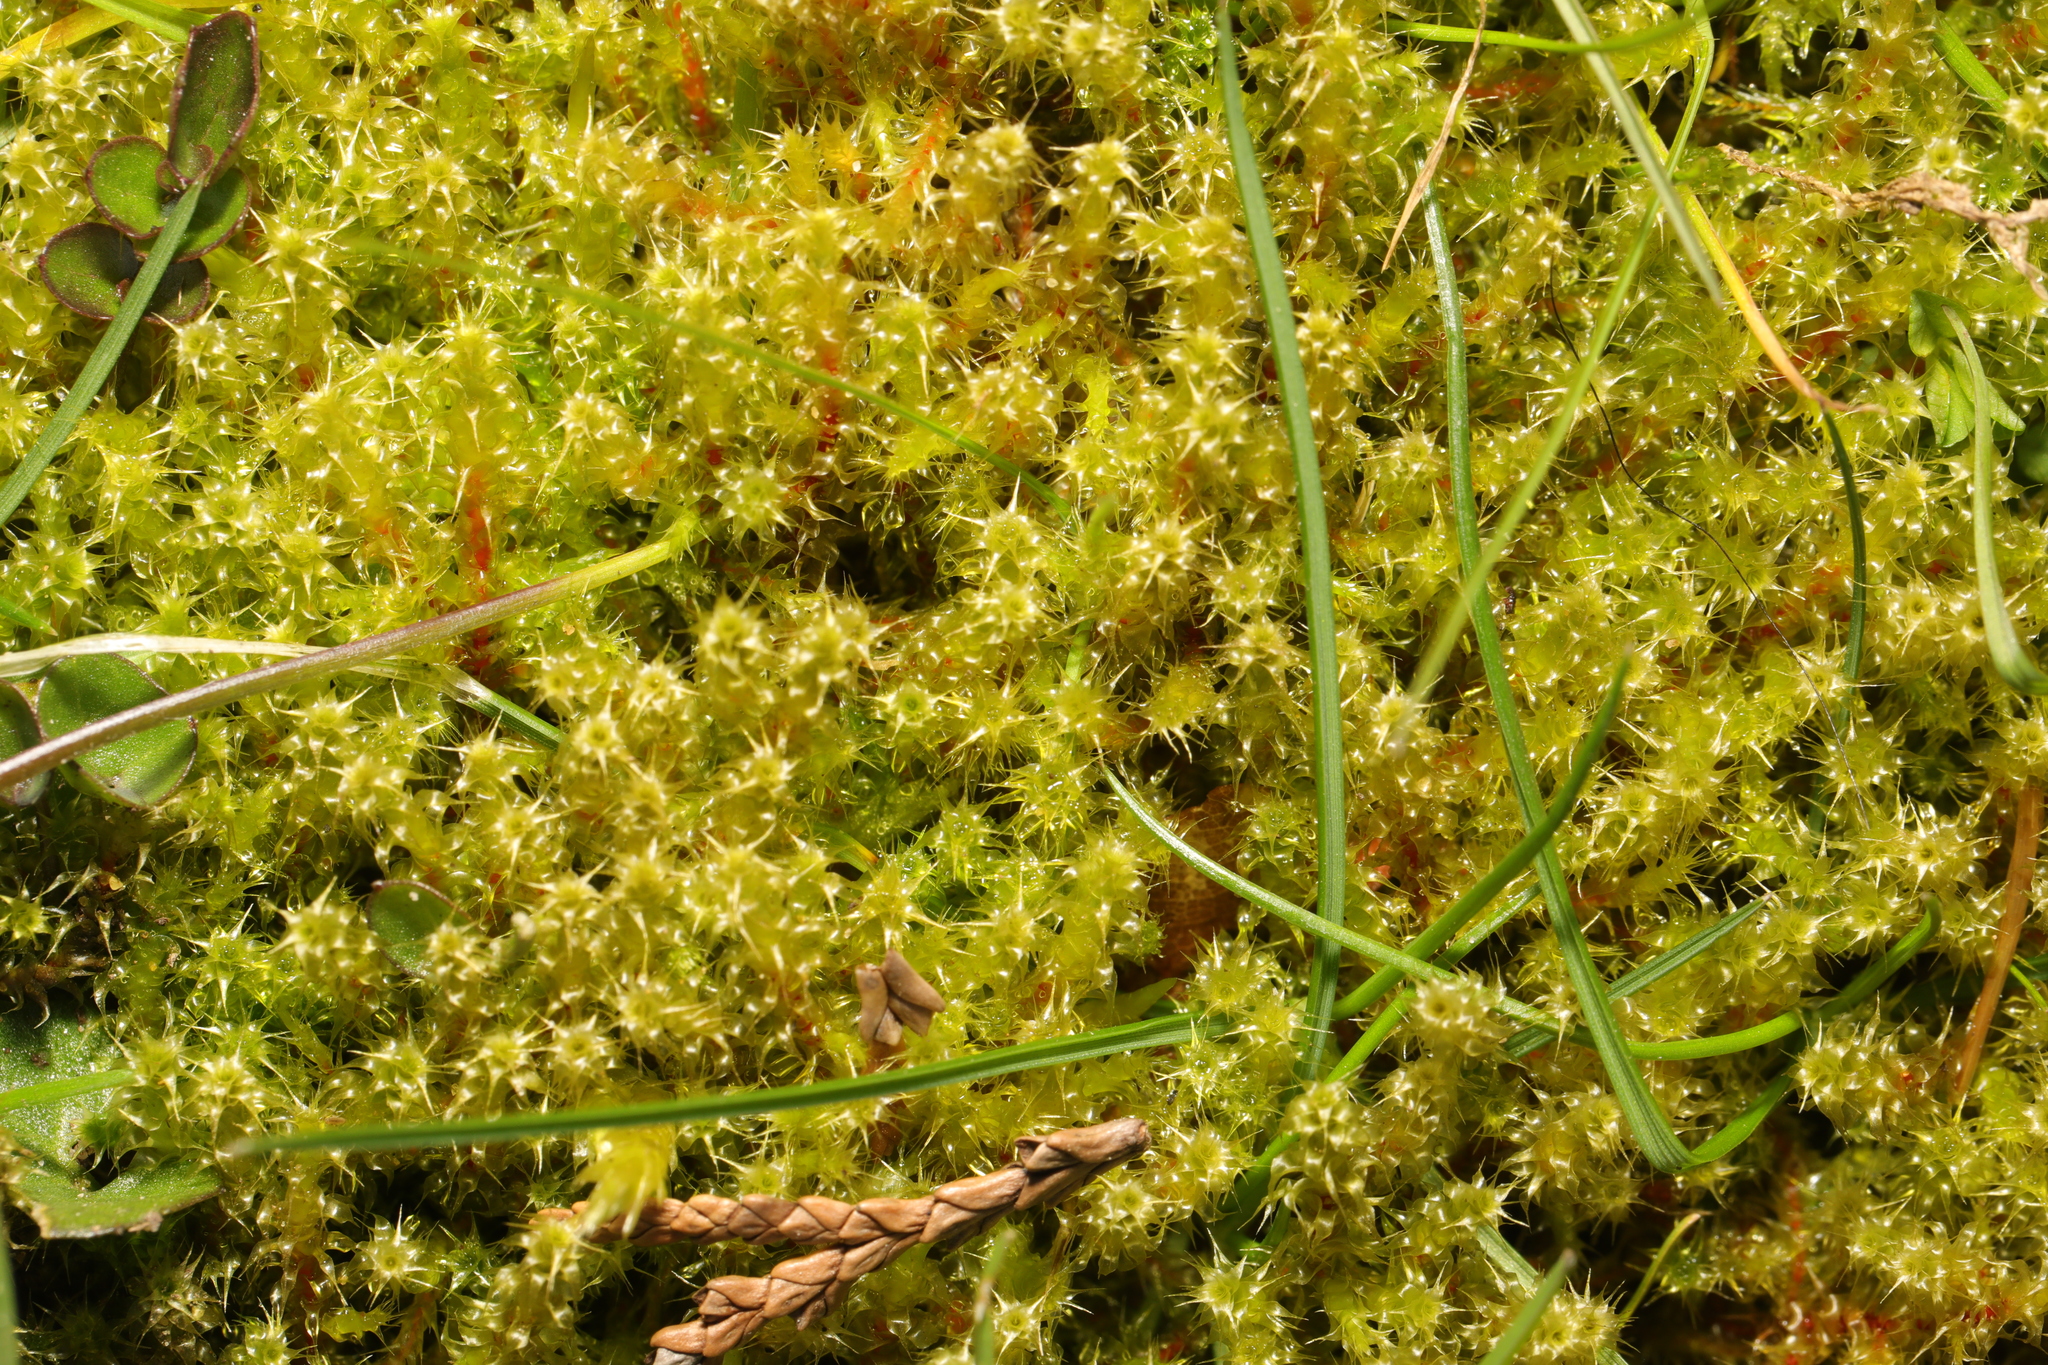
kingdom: Plantae
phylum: Bryophyta
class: Bryopsida
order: Hypnales
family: Hylocomiaceae
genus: Rhytidiadelphus
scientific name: Rhytidiadelphus squarrosus
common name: Springy turf-moss
